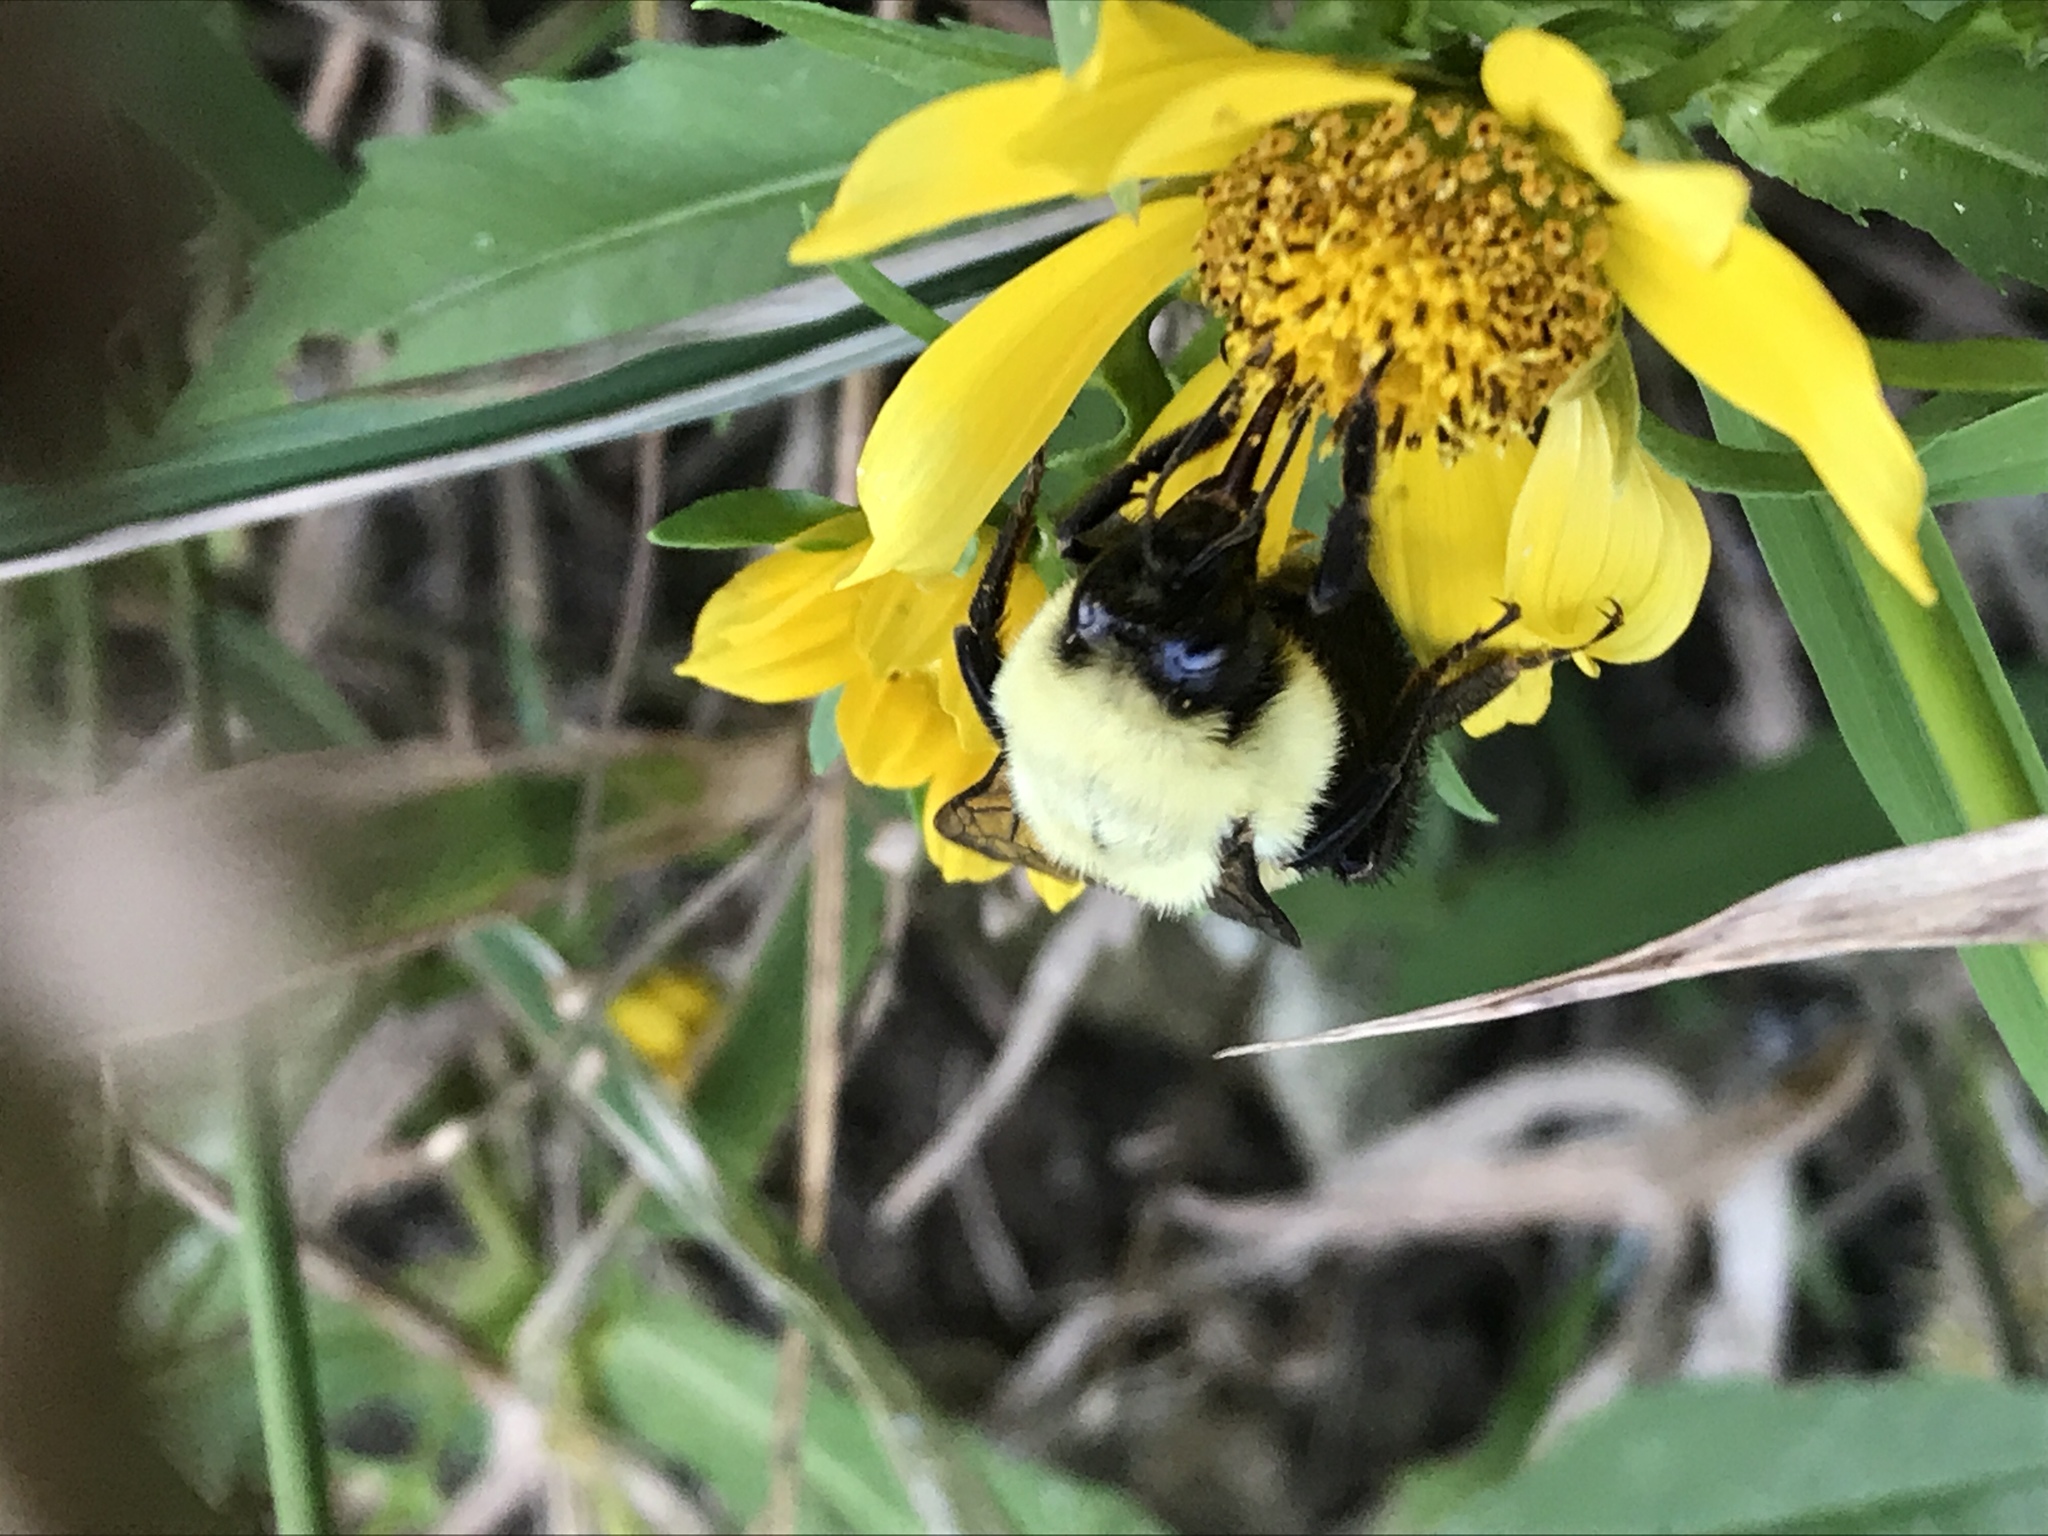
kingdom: Animalia
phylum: Arthropoda
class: Insecta
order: Hymenoptera
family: Apidae
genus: Bombus
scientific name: Bombus impatiens
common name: Common eastern bumble bee
